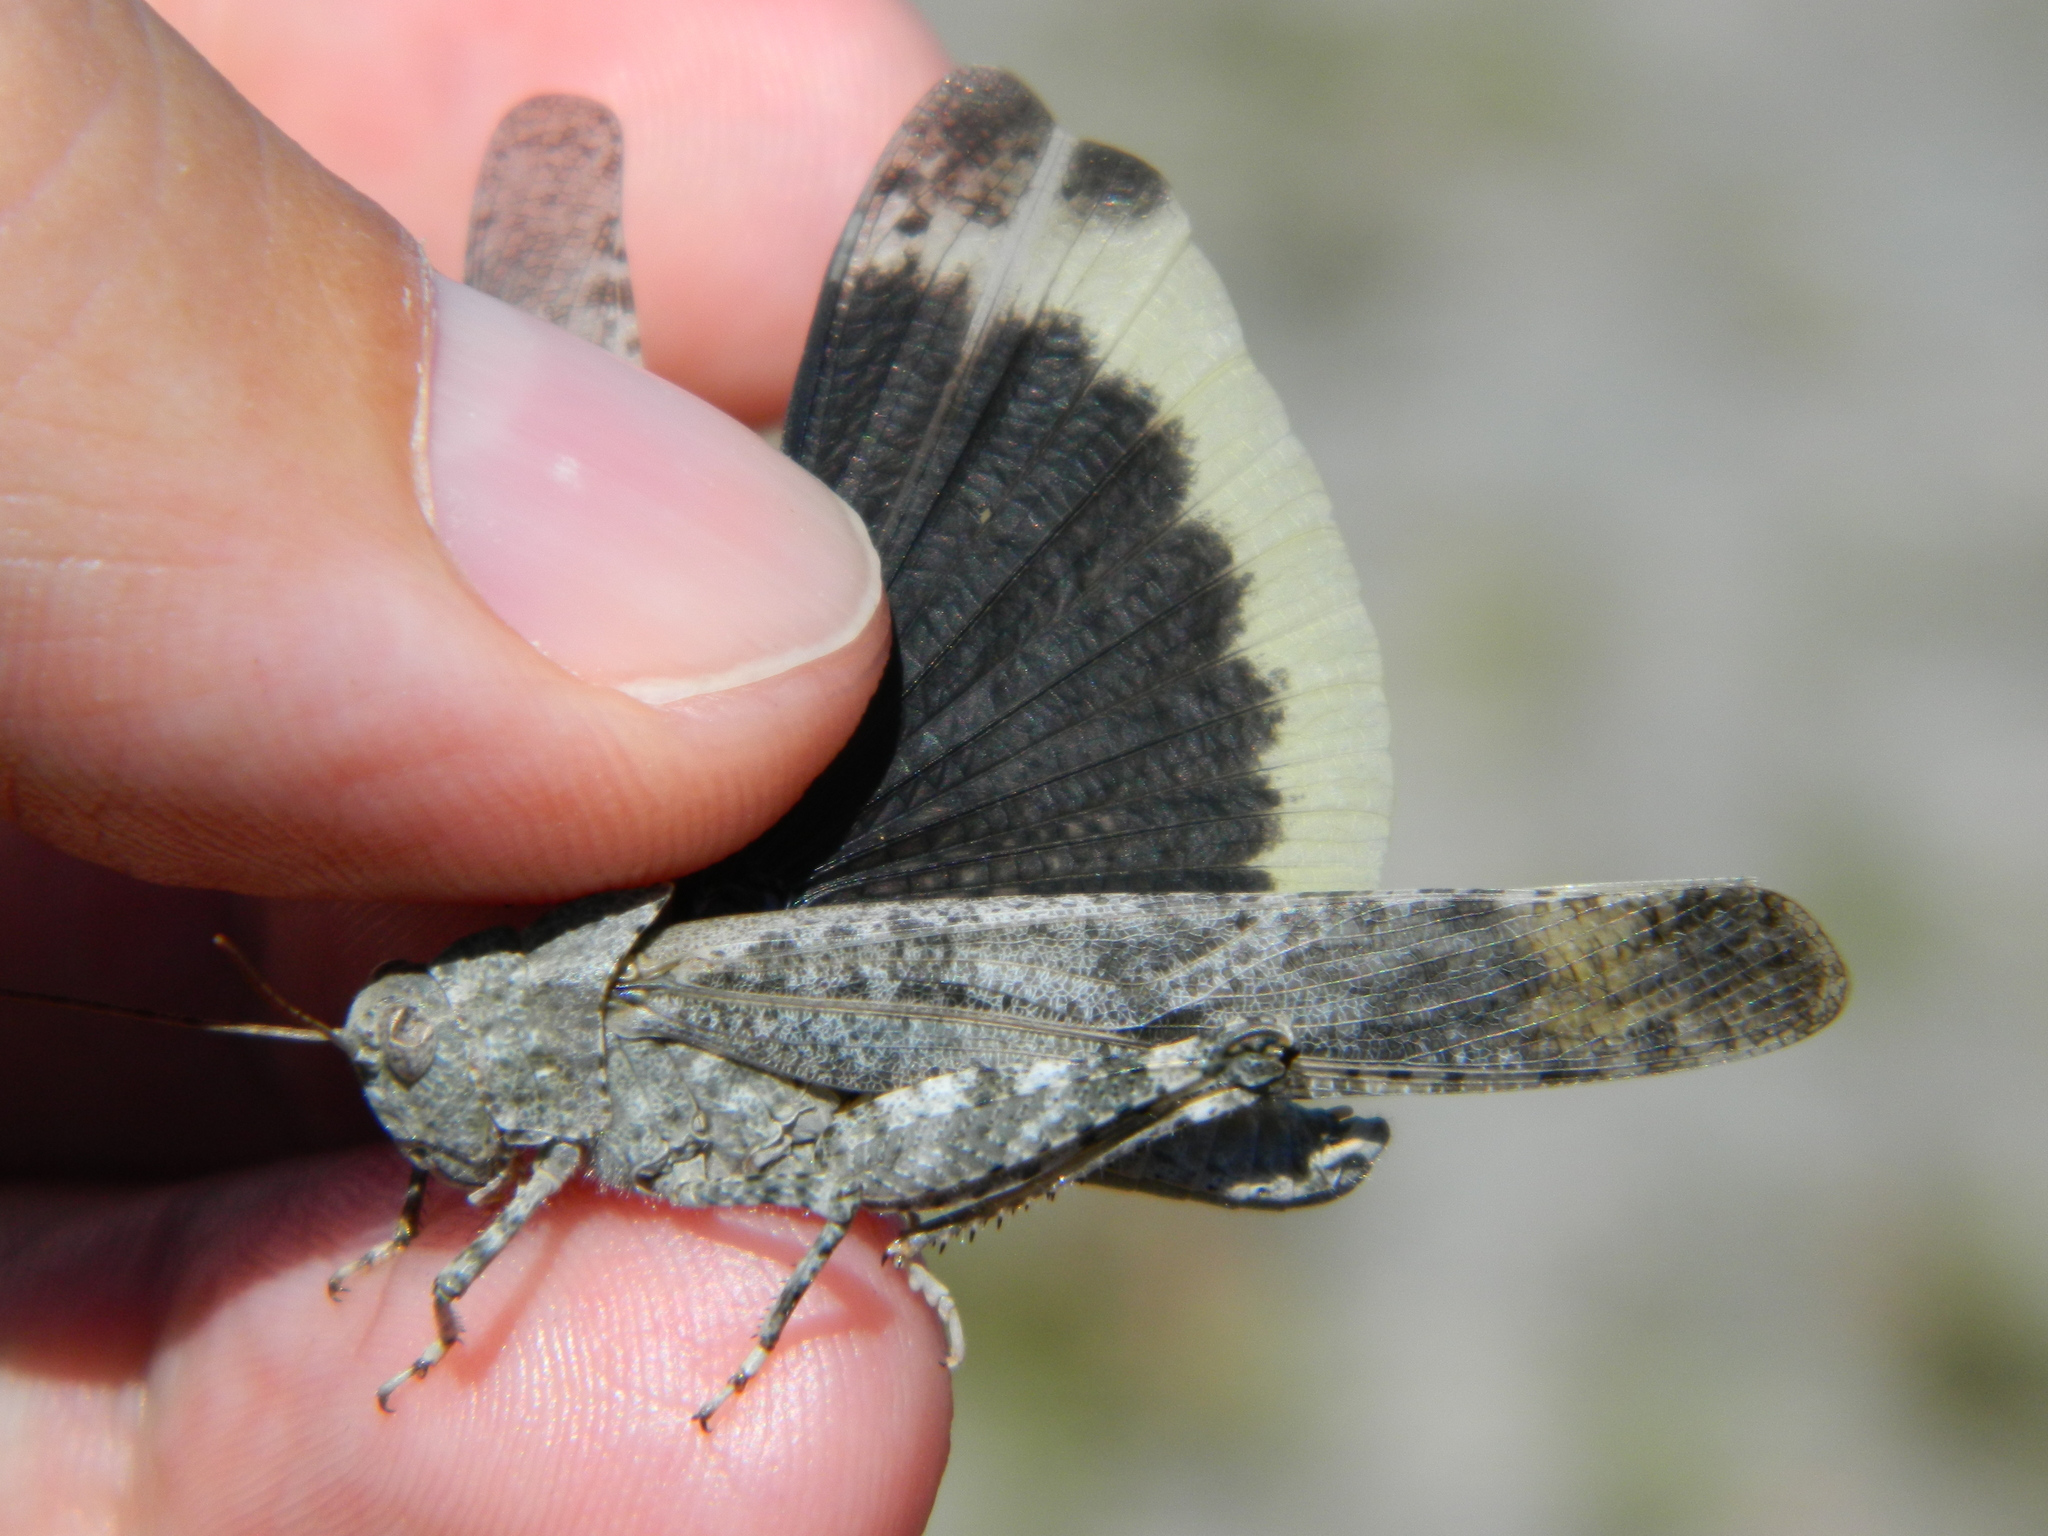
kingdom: Animalia
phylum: Arthropoda
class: Insecta
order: Orthoptera
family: Acrididae
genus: Dissosteira
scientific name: Dissosteira carolina
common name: Carolina grasshopper
